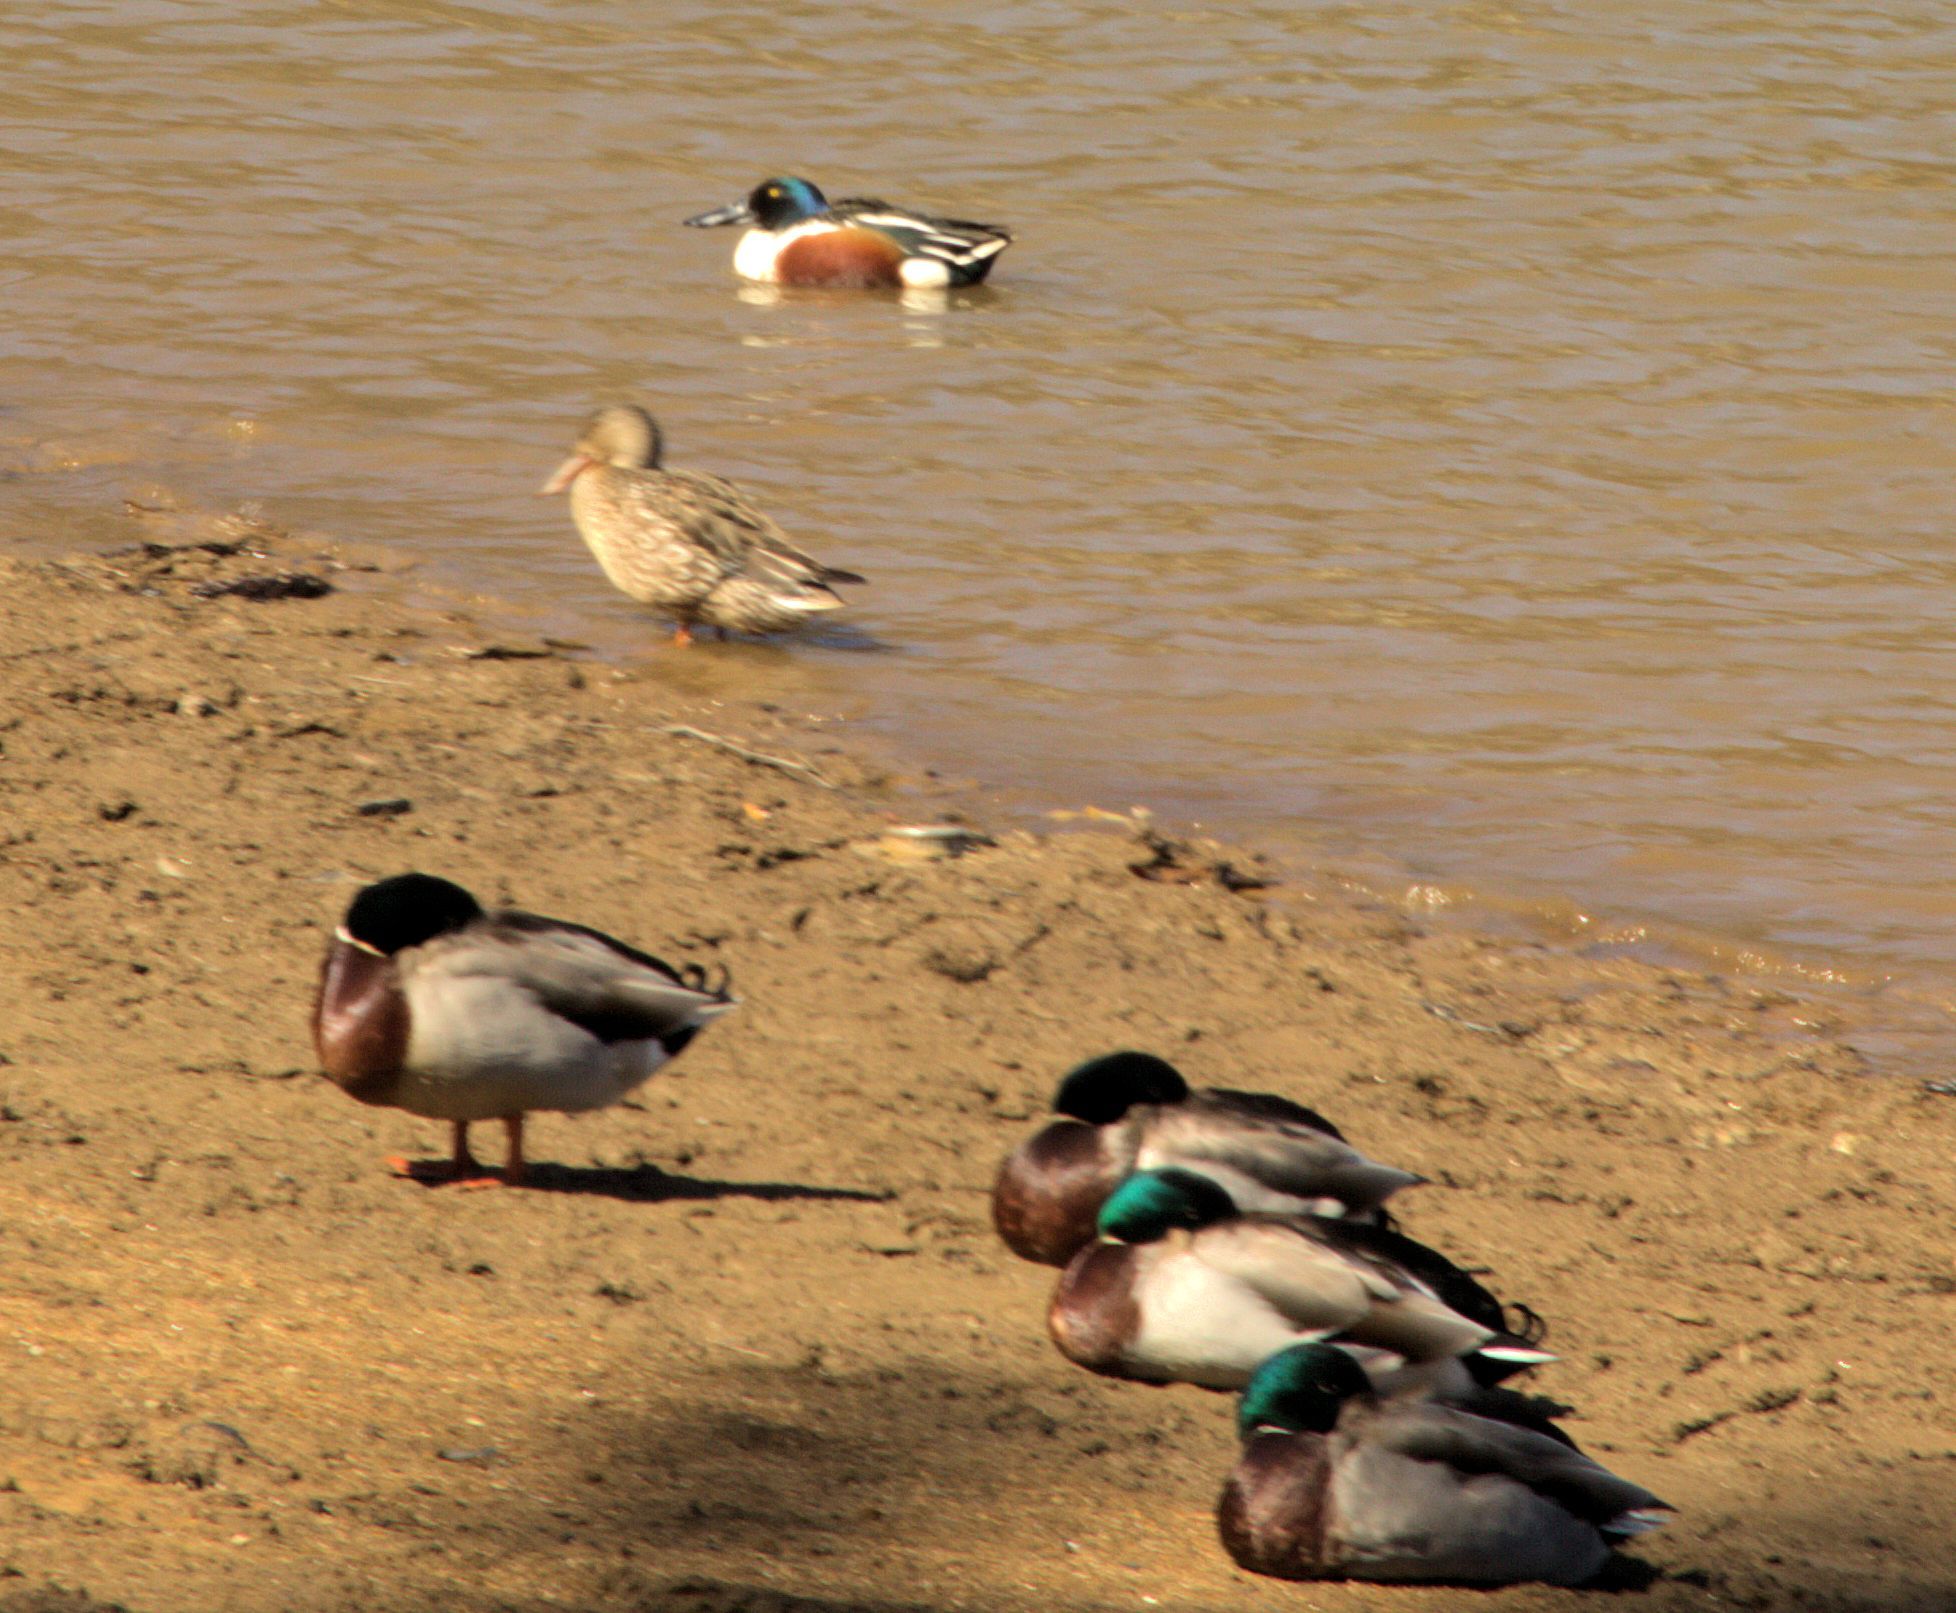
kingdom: Animalia
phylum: Chordata
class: Aves
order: Anseriformes
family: Anatidae
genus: Spatula
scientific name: Spatula clypeata
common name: Northern shoveler
